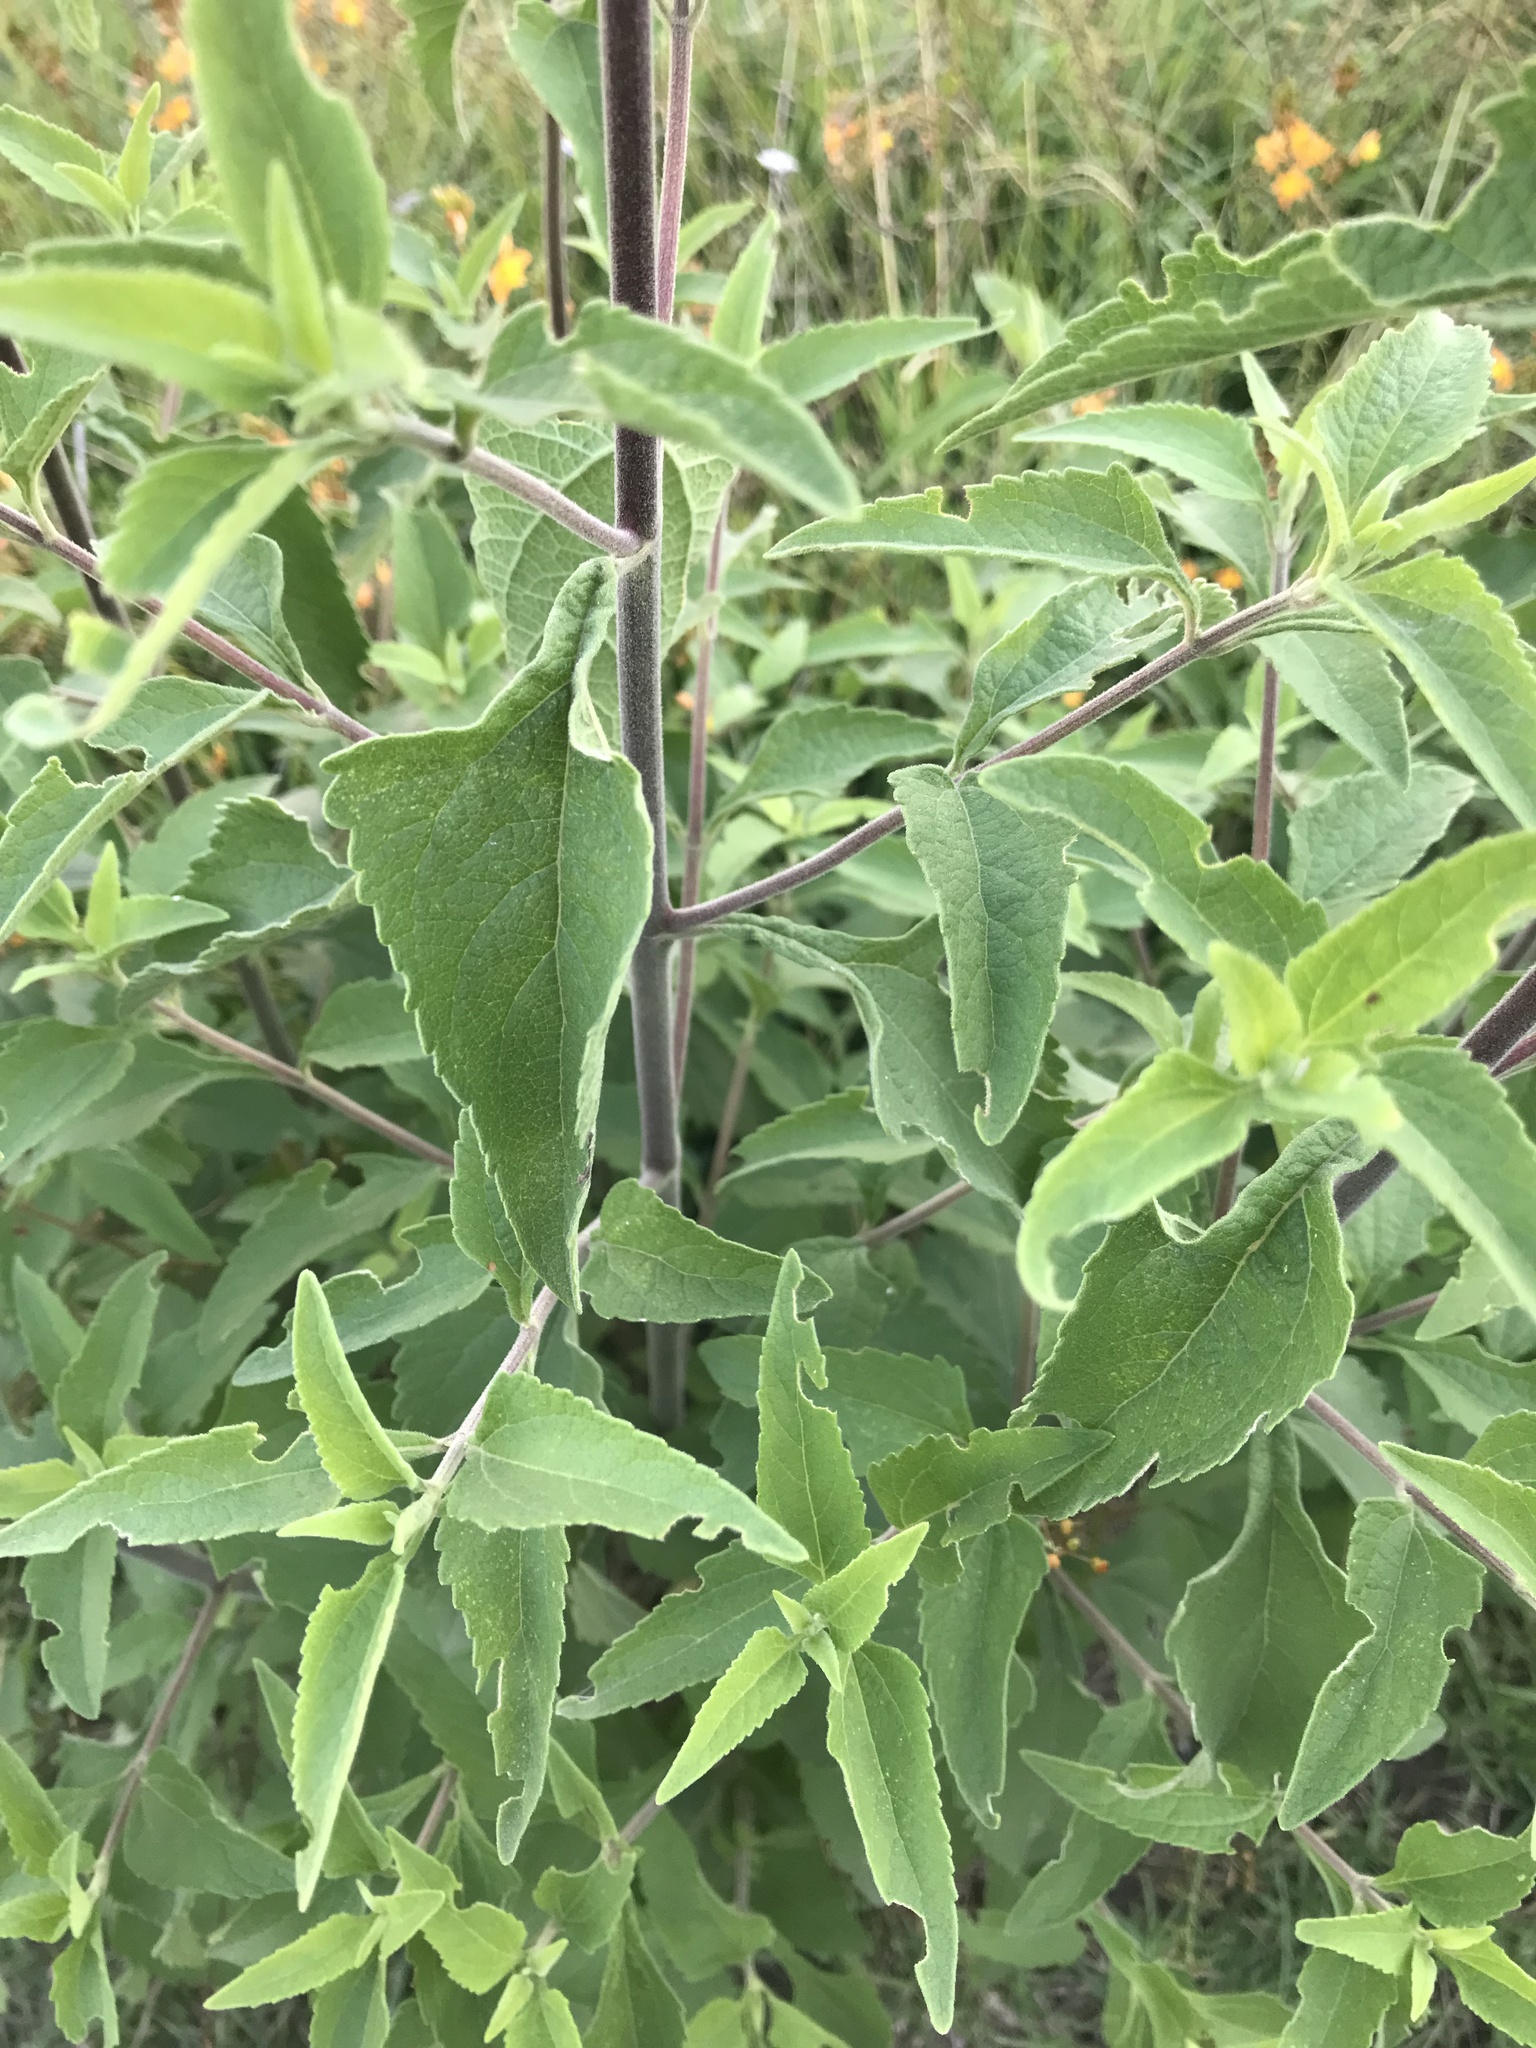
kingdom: Plantae
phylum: Tracheophyta
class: Magnoliopsida
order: Asterales
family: Asteraceae
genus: Austroeupatorium
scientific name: Austroeupatorium inulifolium
